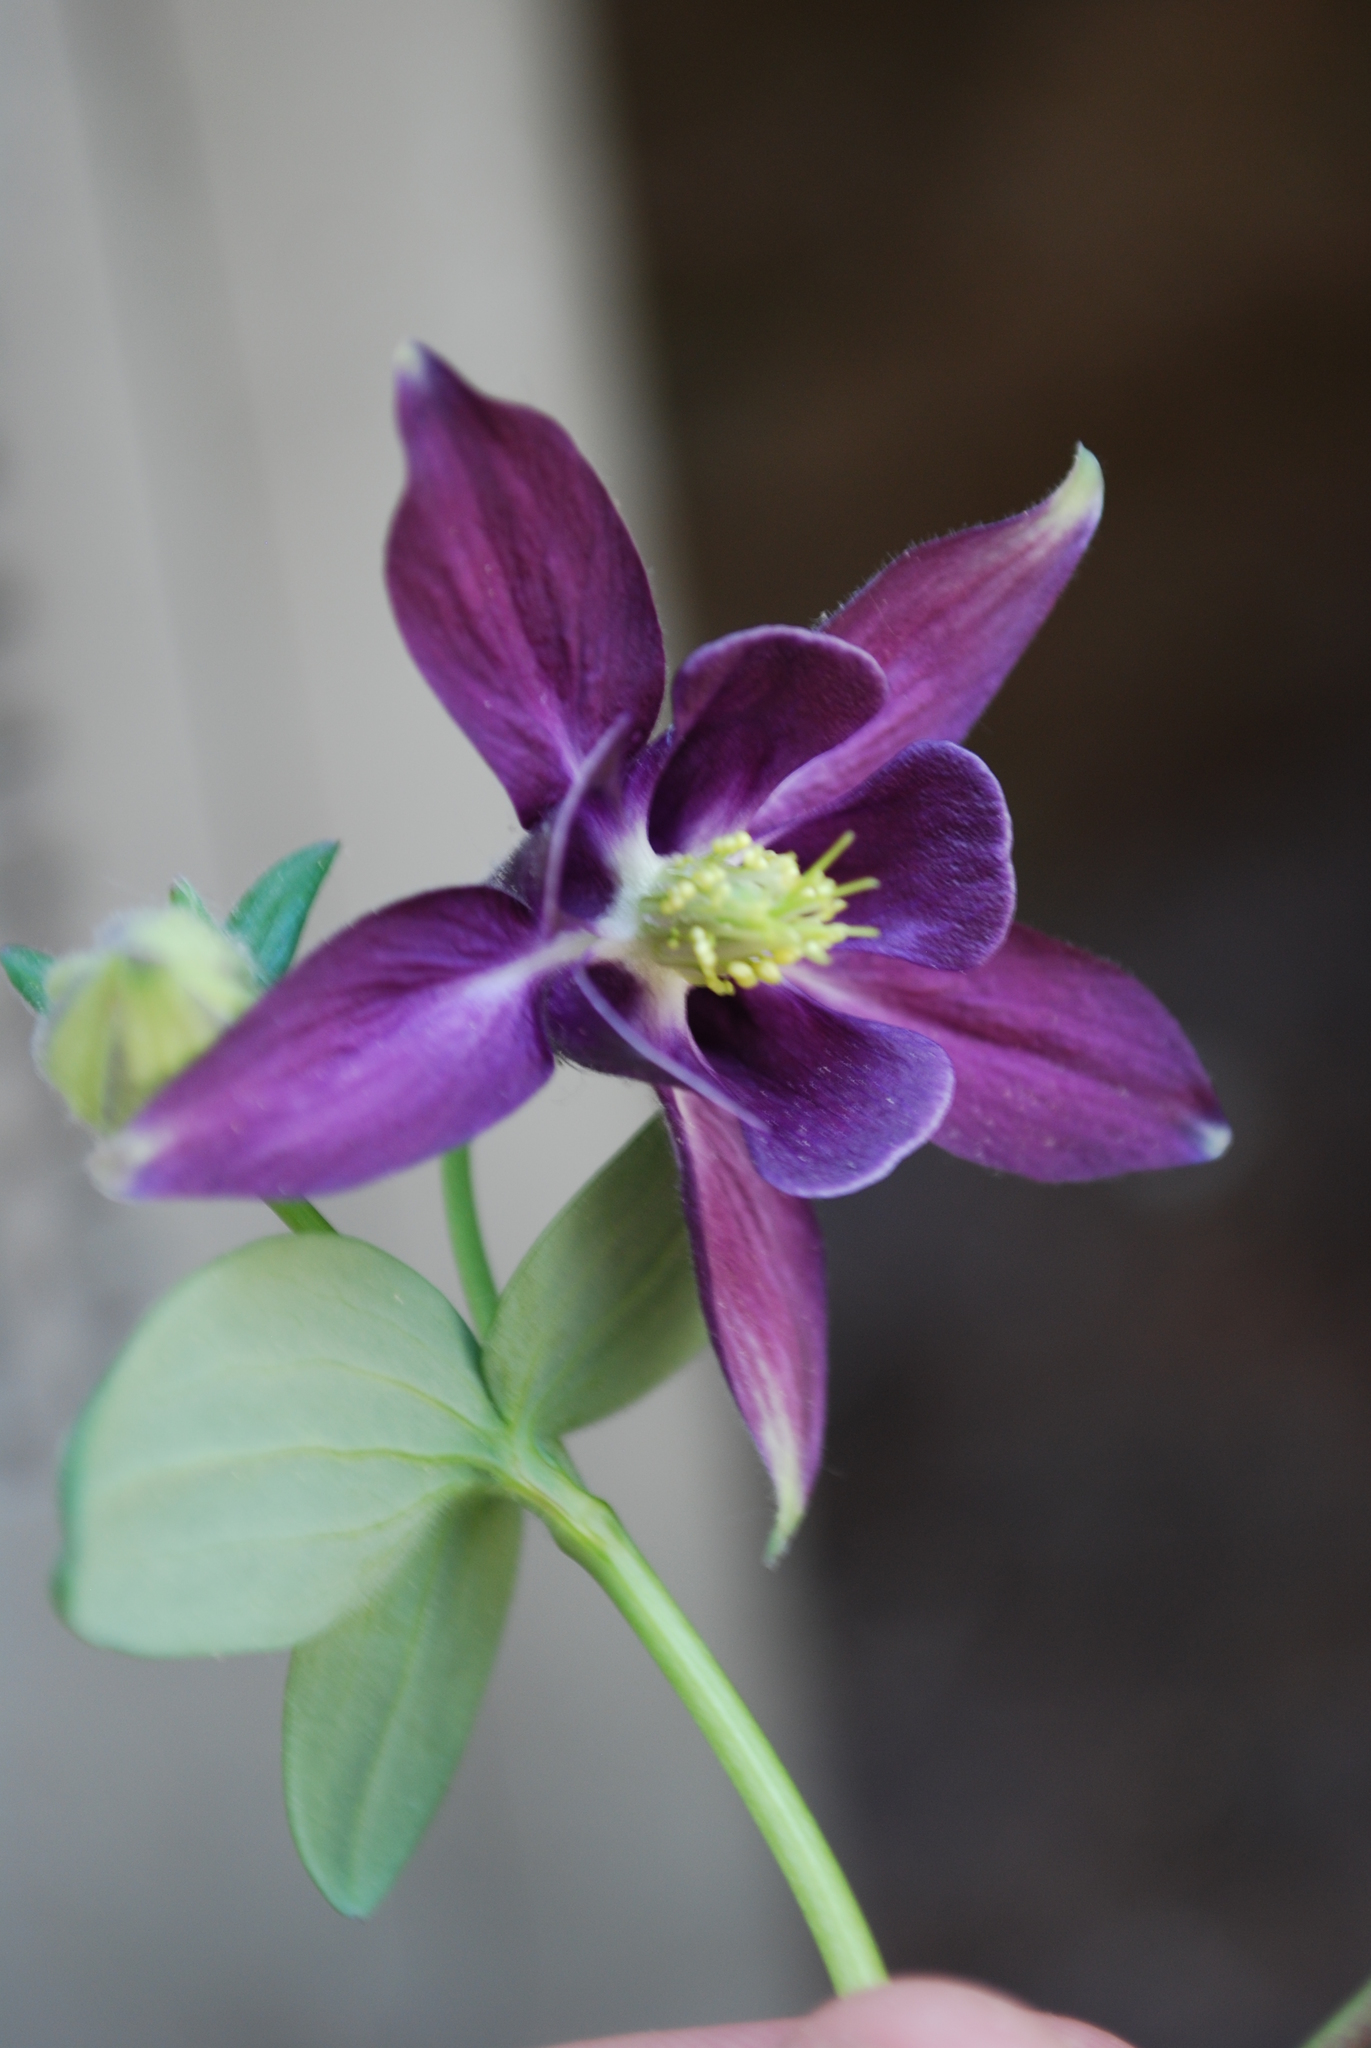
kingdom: Plantae
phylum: Tracheophyta
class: Magnoliopsida
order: Ranunculales
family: Ranunculaceae
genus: Aquilegia
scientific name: Aquilegia vulgaris
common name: Columbine
